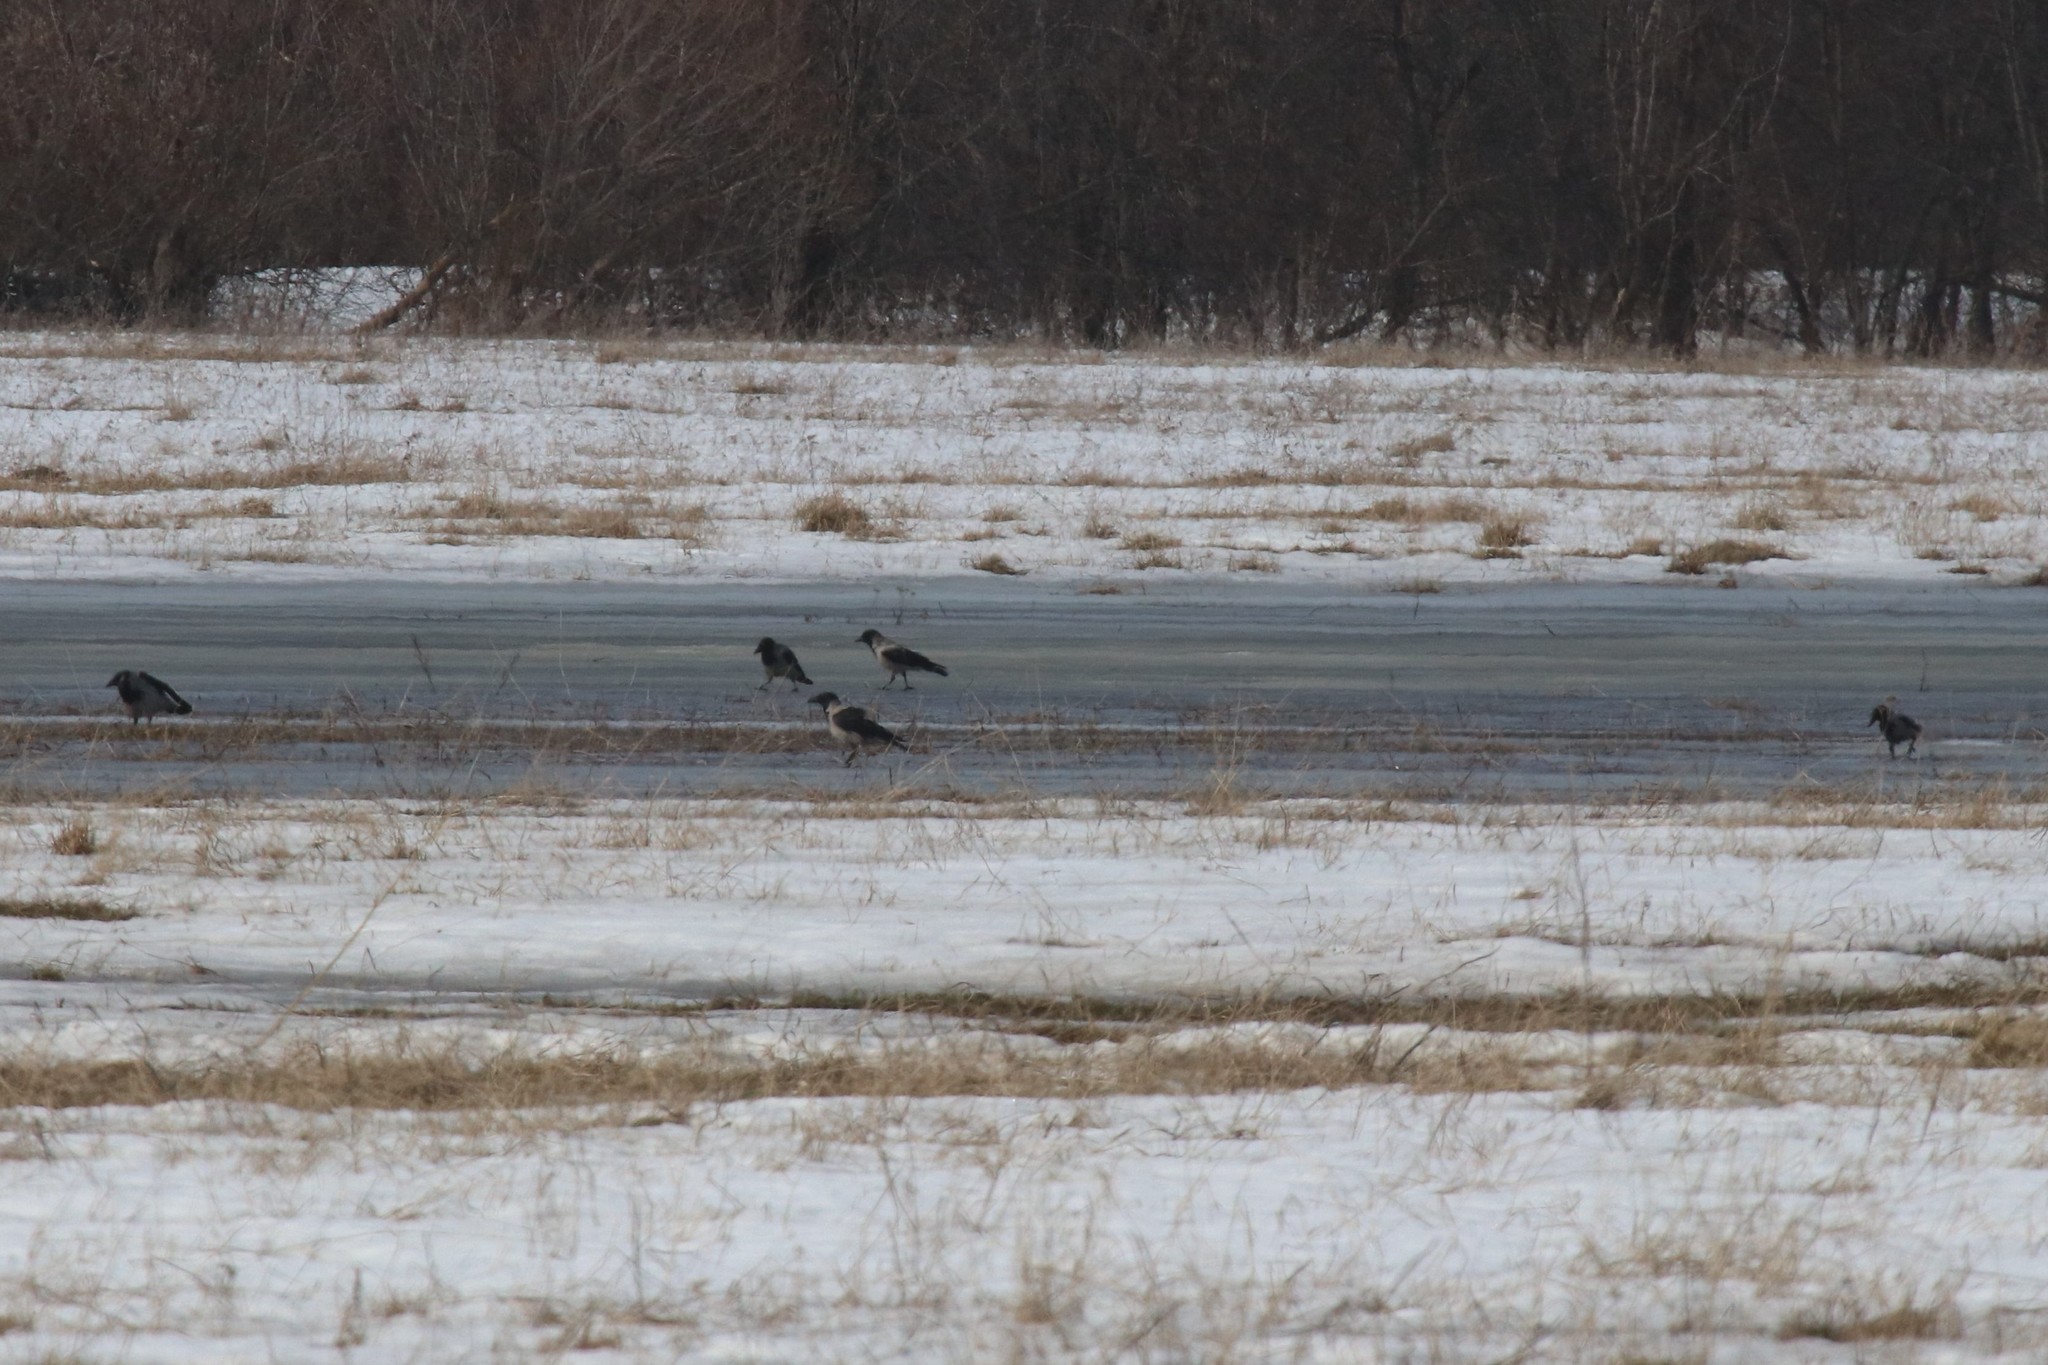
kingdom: Animalia
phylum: Chordata
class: Aves
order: Passeriformes
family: Corvidae
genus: Corvus
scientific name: Corvus cornix
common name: Hooded crow
